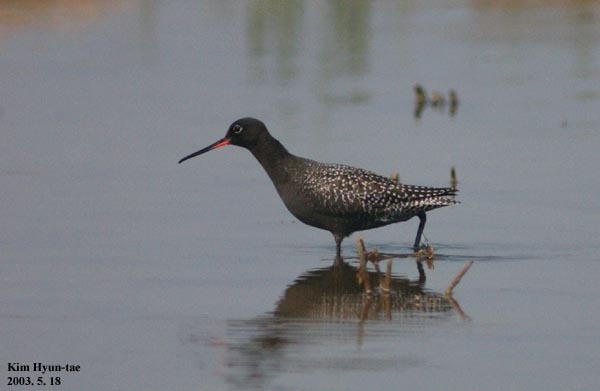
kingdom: Animalia
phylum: Chordata
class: Aves
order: Charadriiformes
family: Scolopacidae
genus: Tringa
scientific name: Tringa erythropus
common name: Spotted redshank
